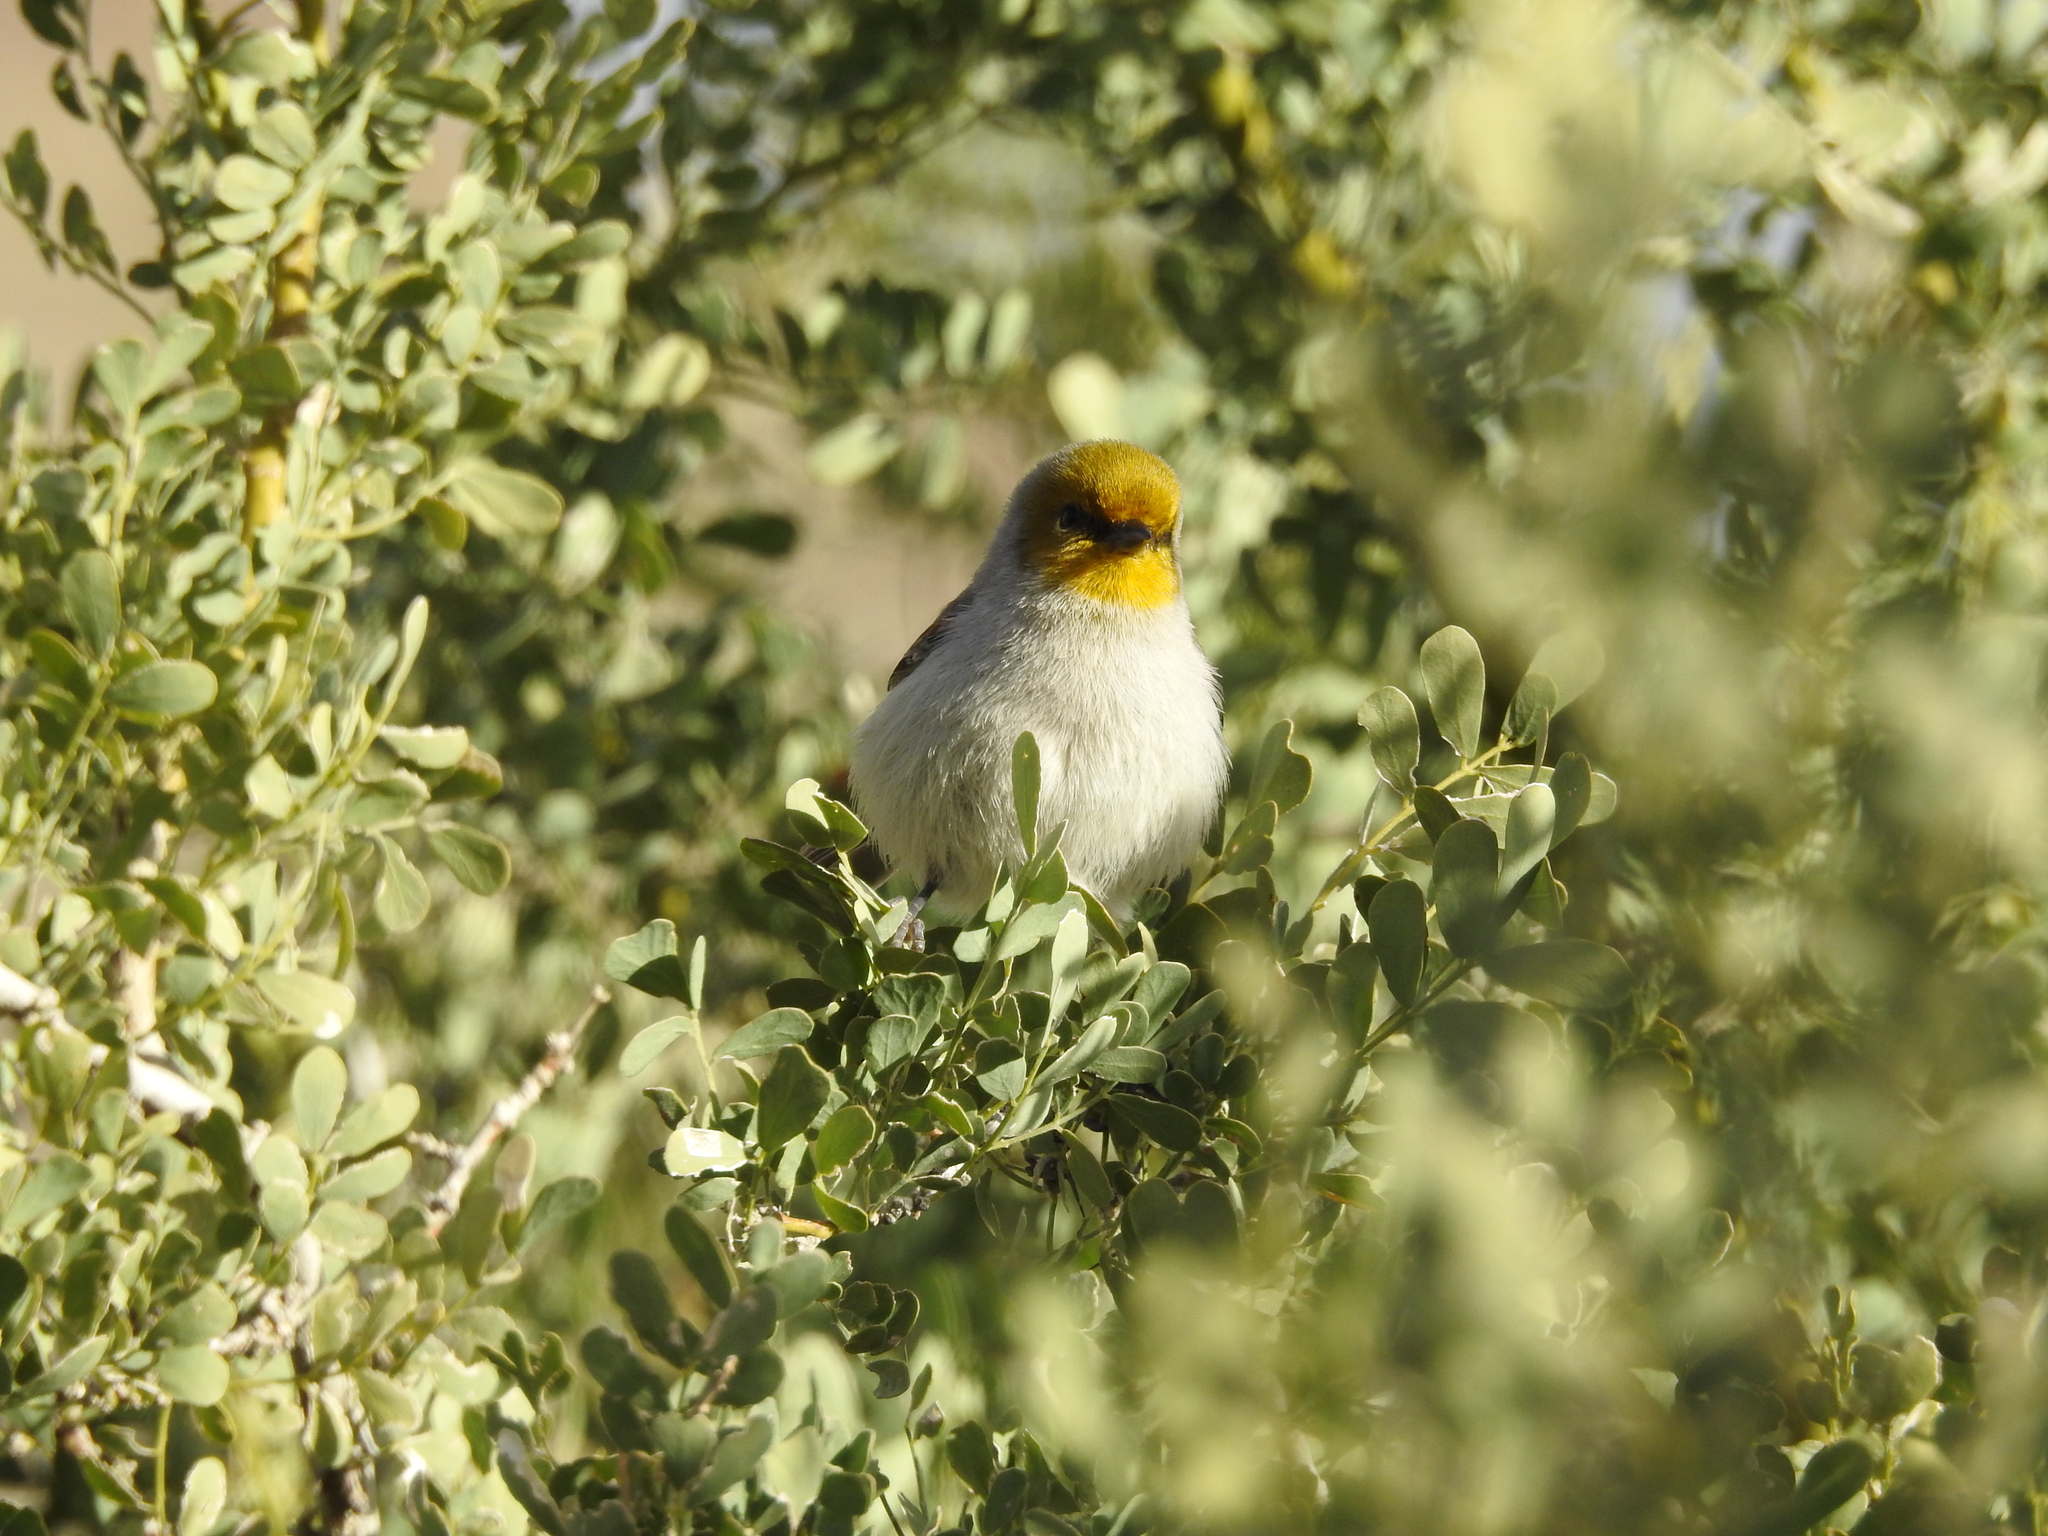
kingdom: Animalia
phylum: Chordata
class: Aves
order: Passeriformes
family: Remizidae
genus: Auriparus
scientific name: Auriparus flaviceps
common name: Verdin
